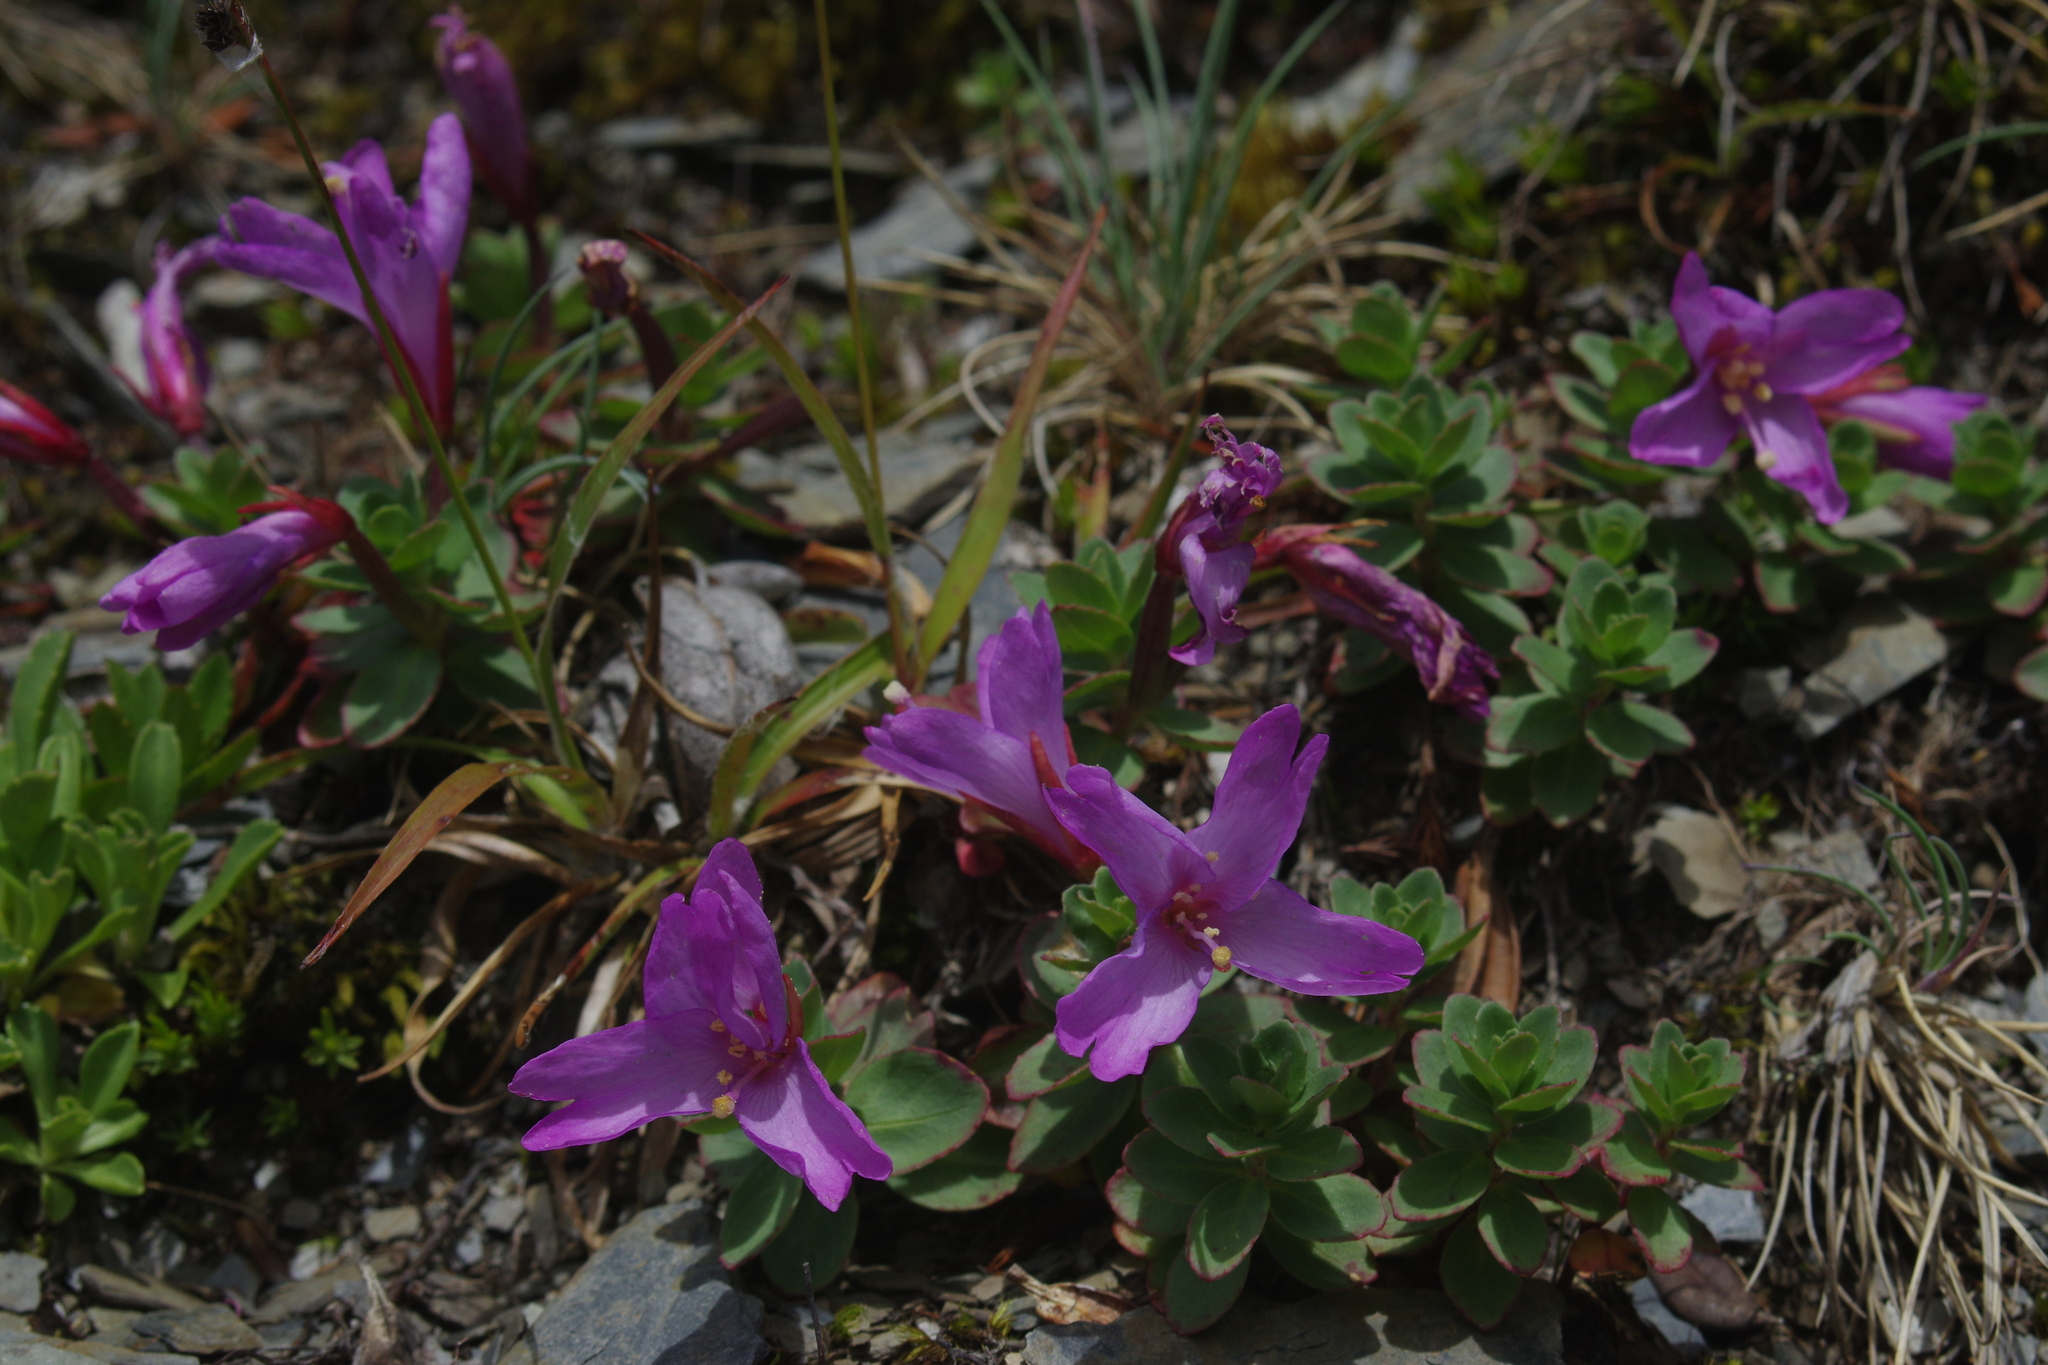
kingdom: Plantae
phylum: Tracheophyta
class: Magnoliopsida
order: Myrtales
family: Onagraceae
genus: Epilobium
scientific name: Epilobium nankotaizanense
